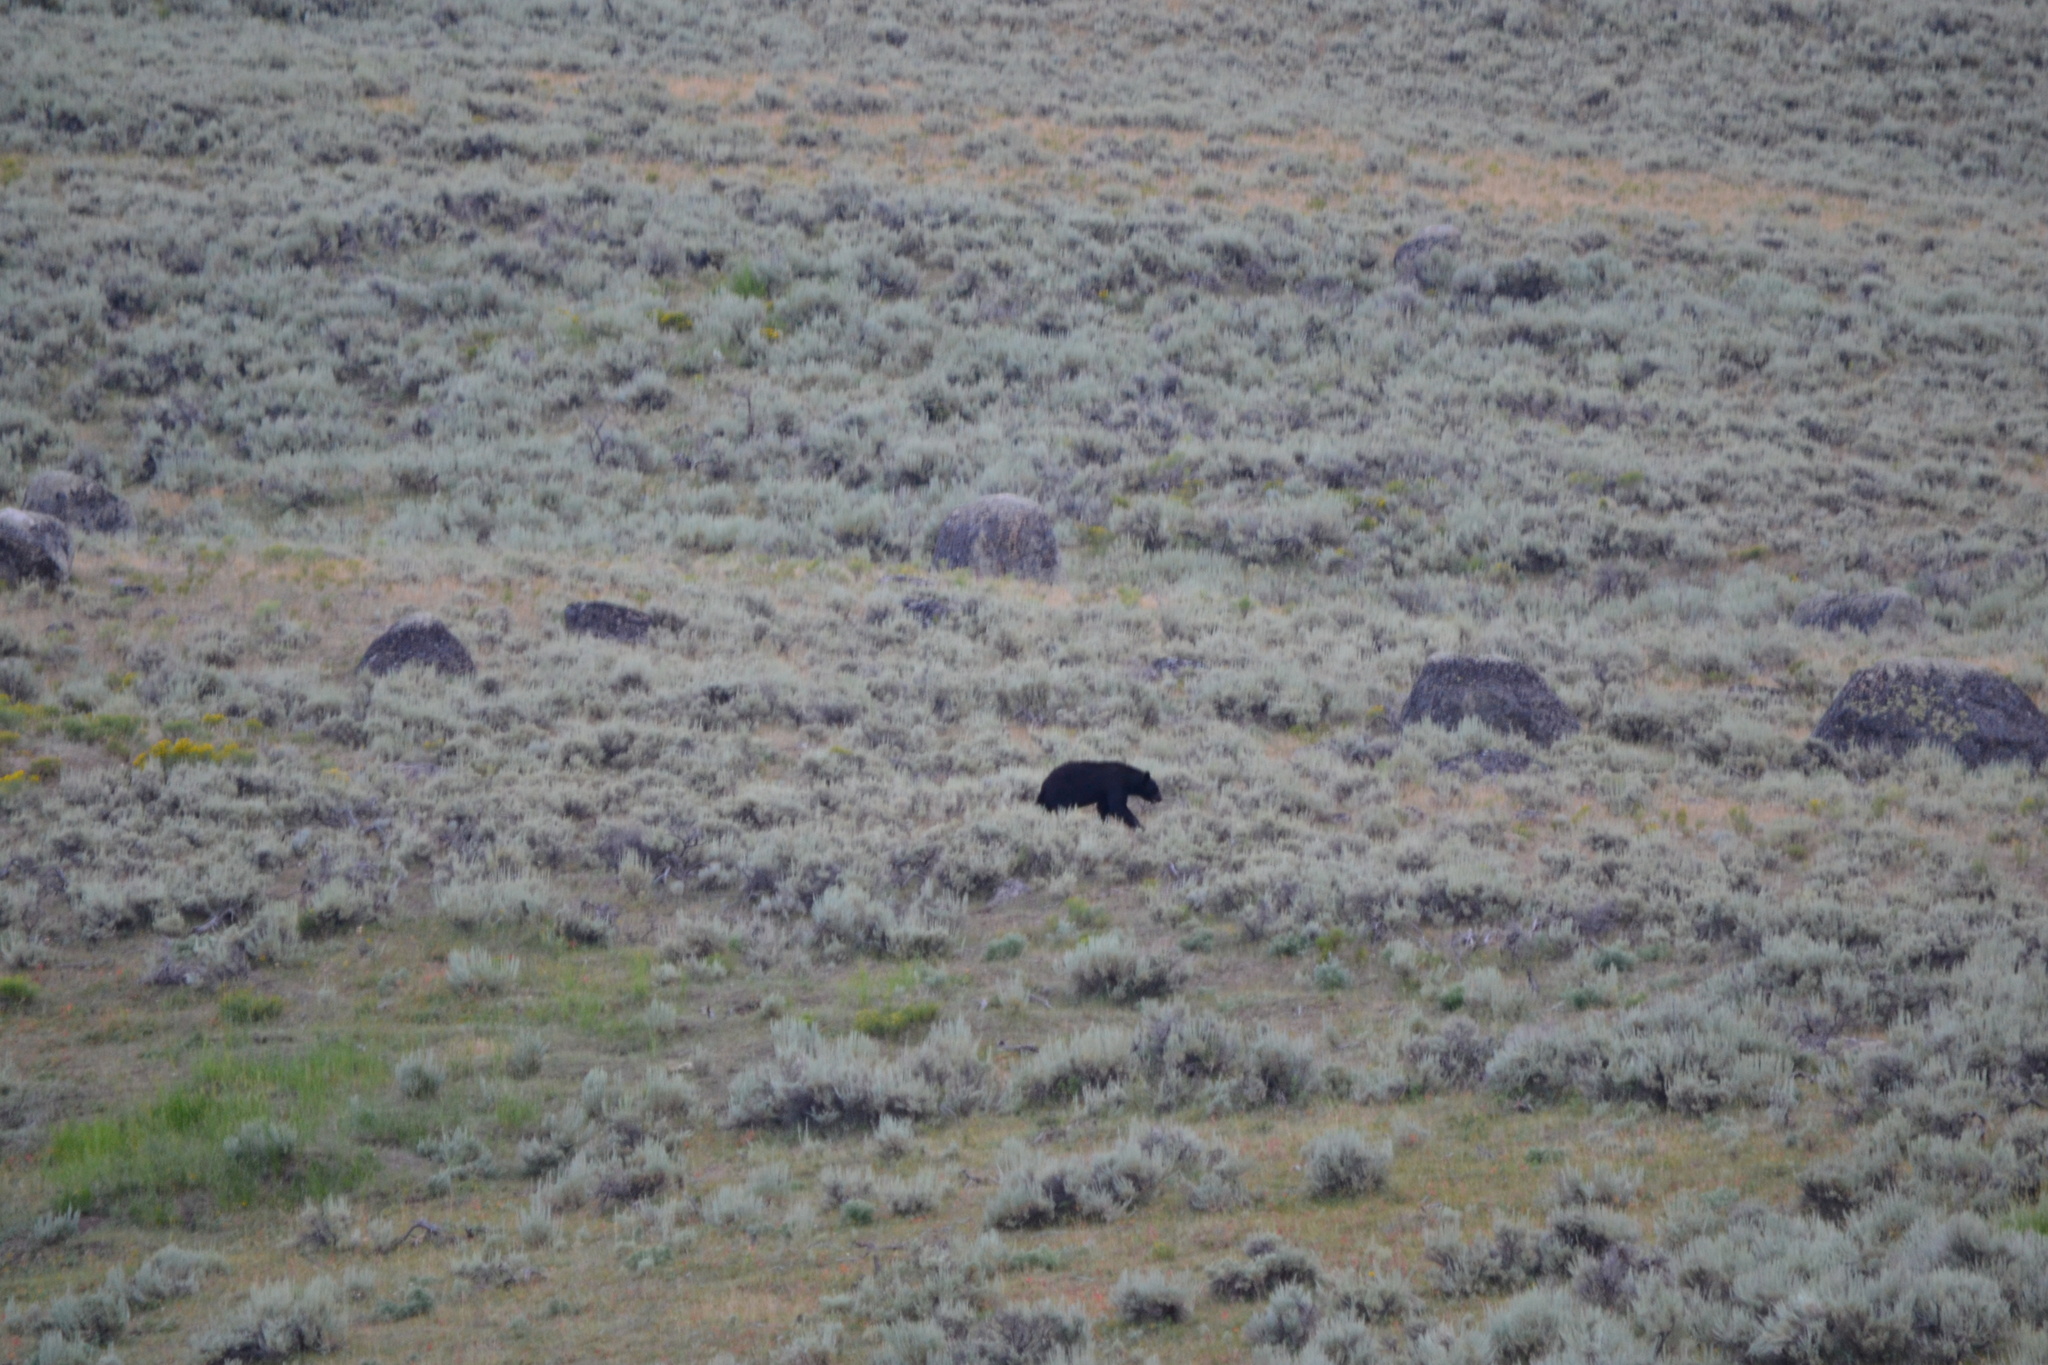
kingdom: Animalia
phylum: Chordata
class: Mammalia
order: Carnivora
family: Ursidae
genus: Ursus
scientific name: Ursus americanus
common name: American black bear
